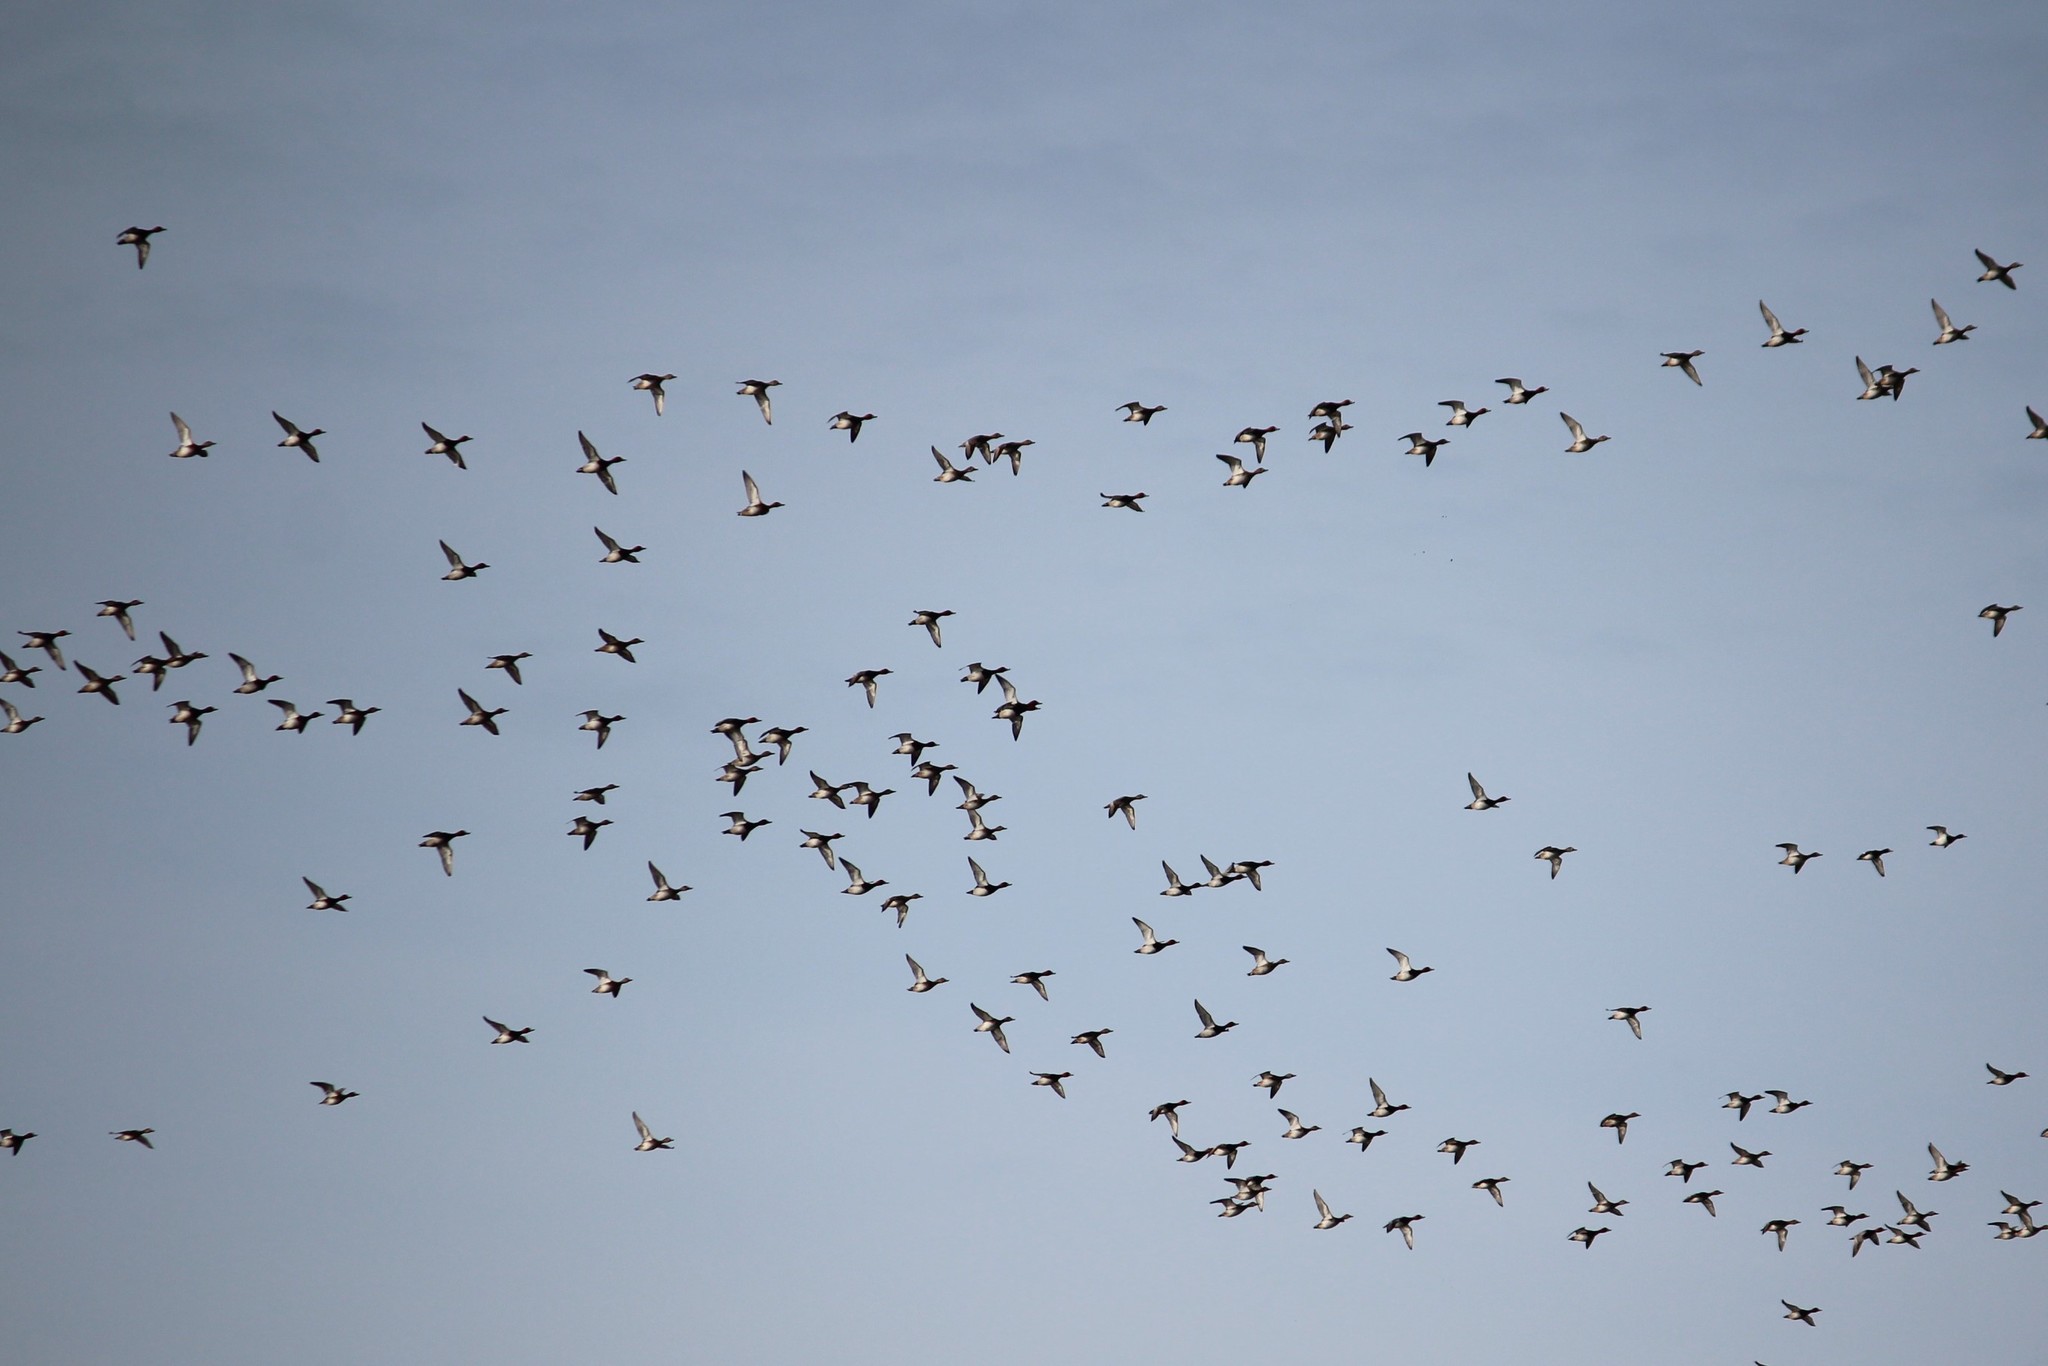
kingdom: Animalia
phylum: Chordata
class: Aves
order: Anseriformes
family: Anatidae
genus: Aythya
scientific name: Aythya americana
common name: Redhead
